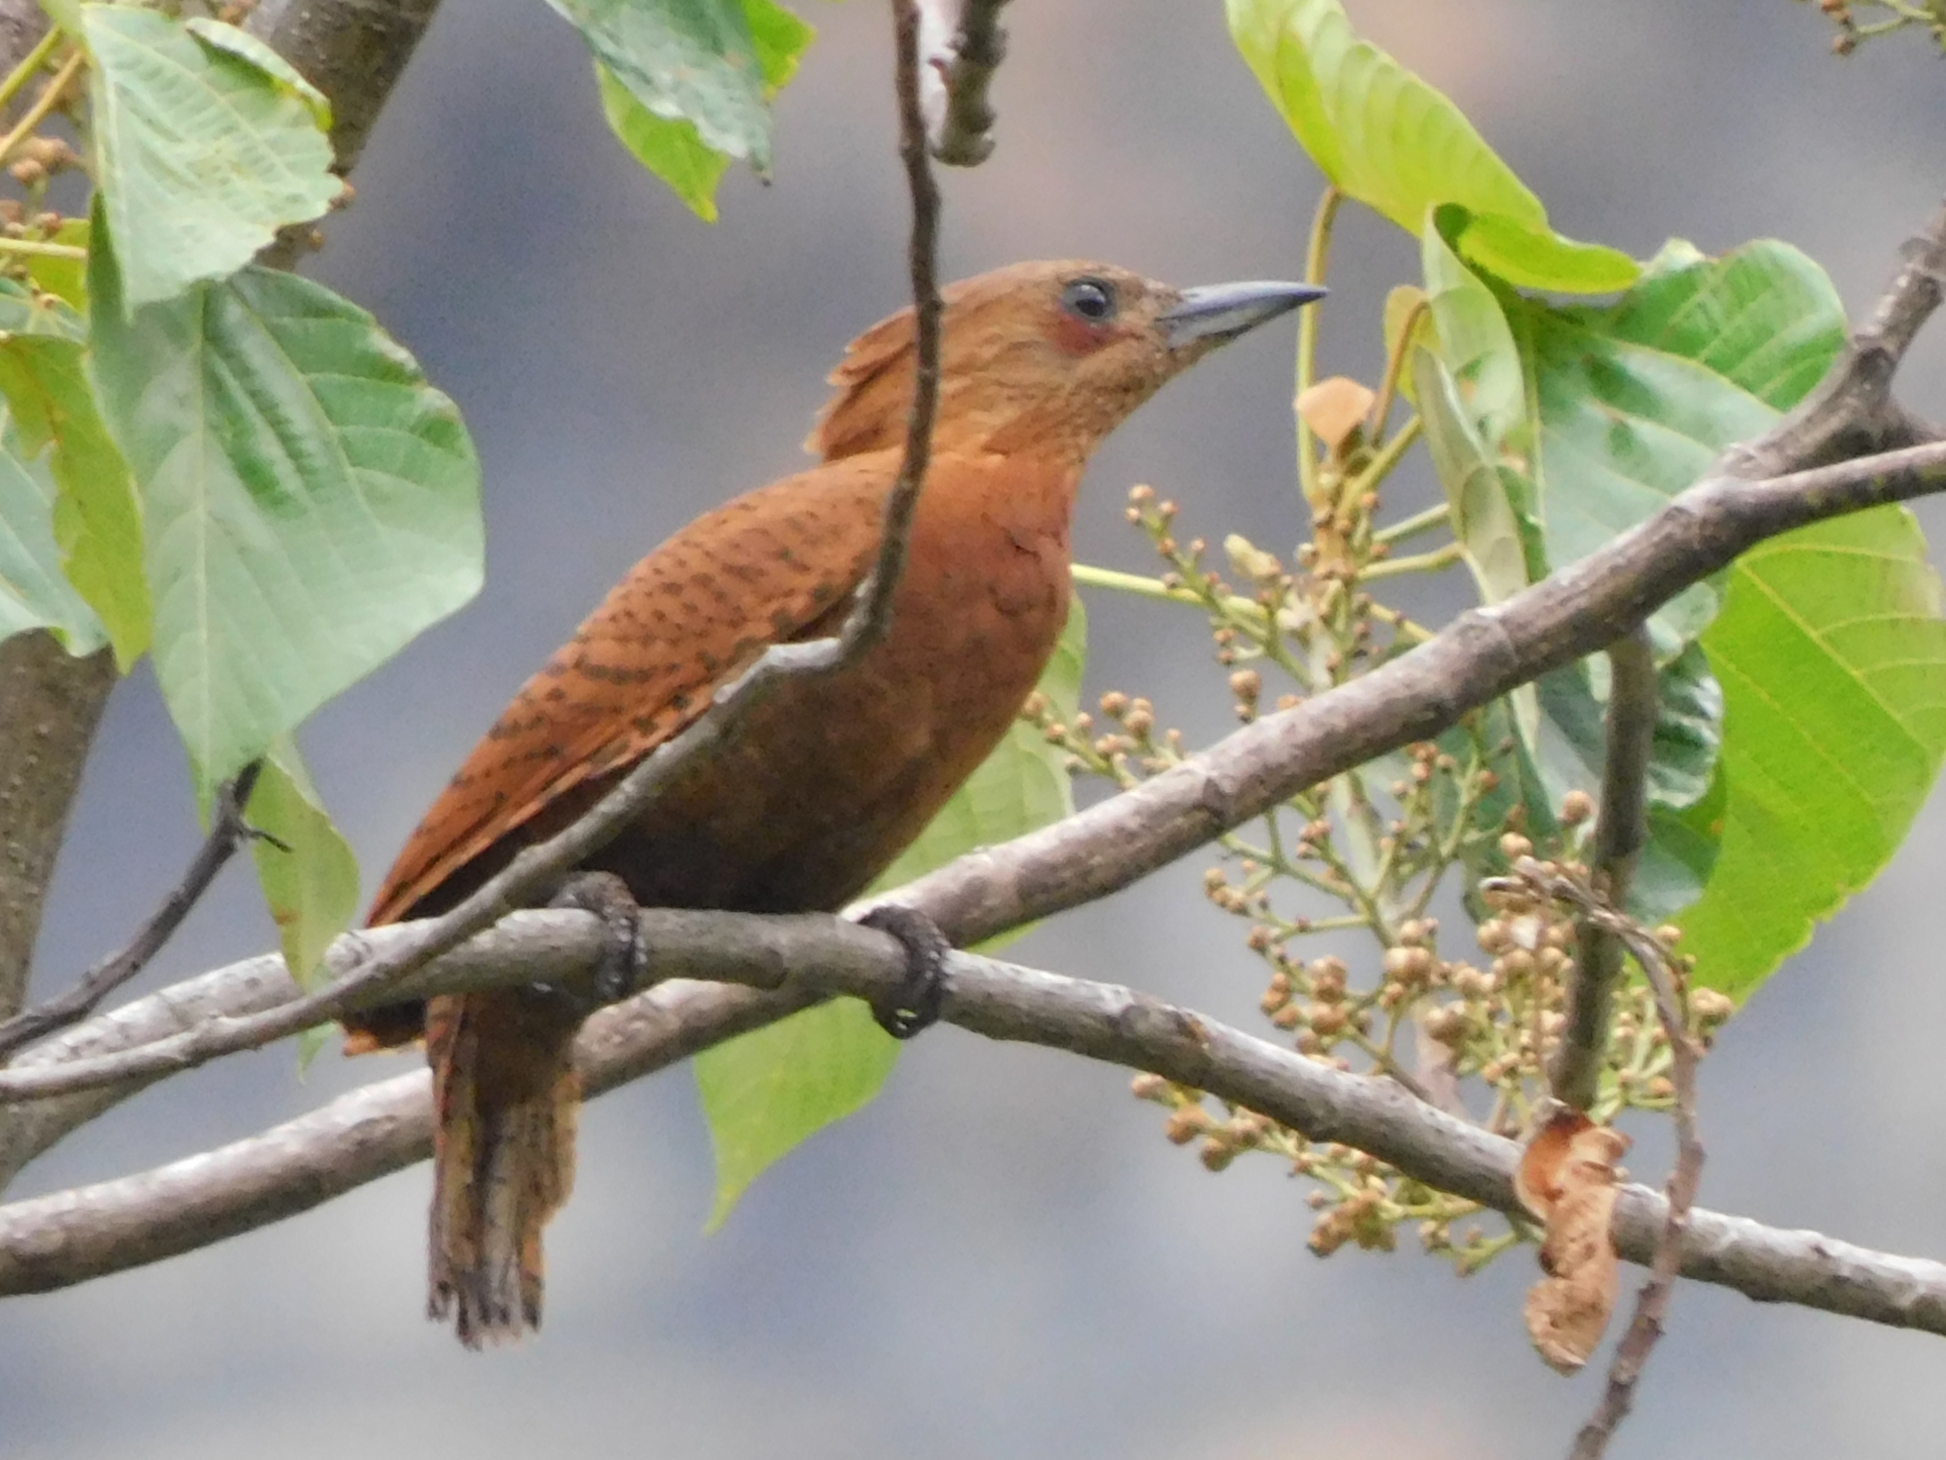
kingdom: Animalia
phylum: Chordata
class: Aves
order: Piciformes
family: Picidae
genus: Micropternus
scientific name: Micropternus brachyurus
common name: Rufous woodpecker
